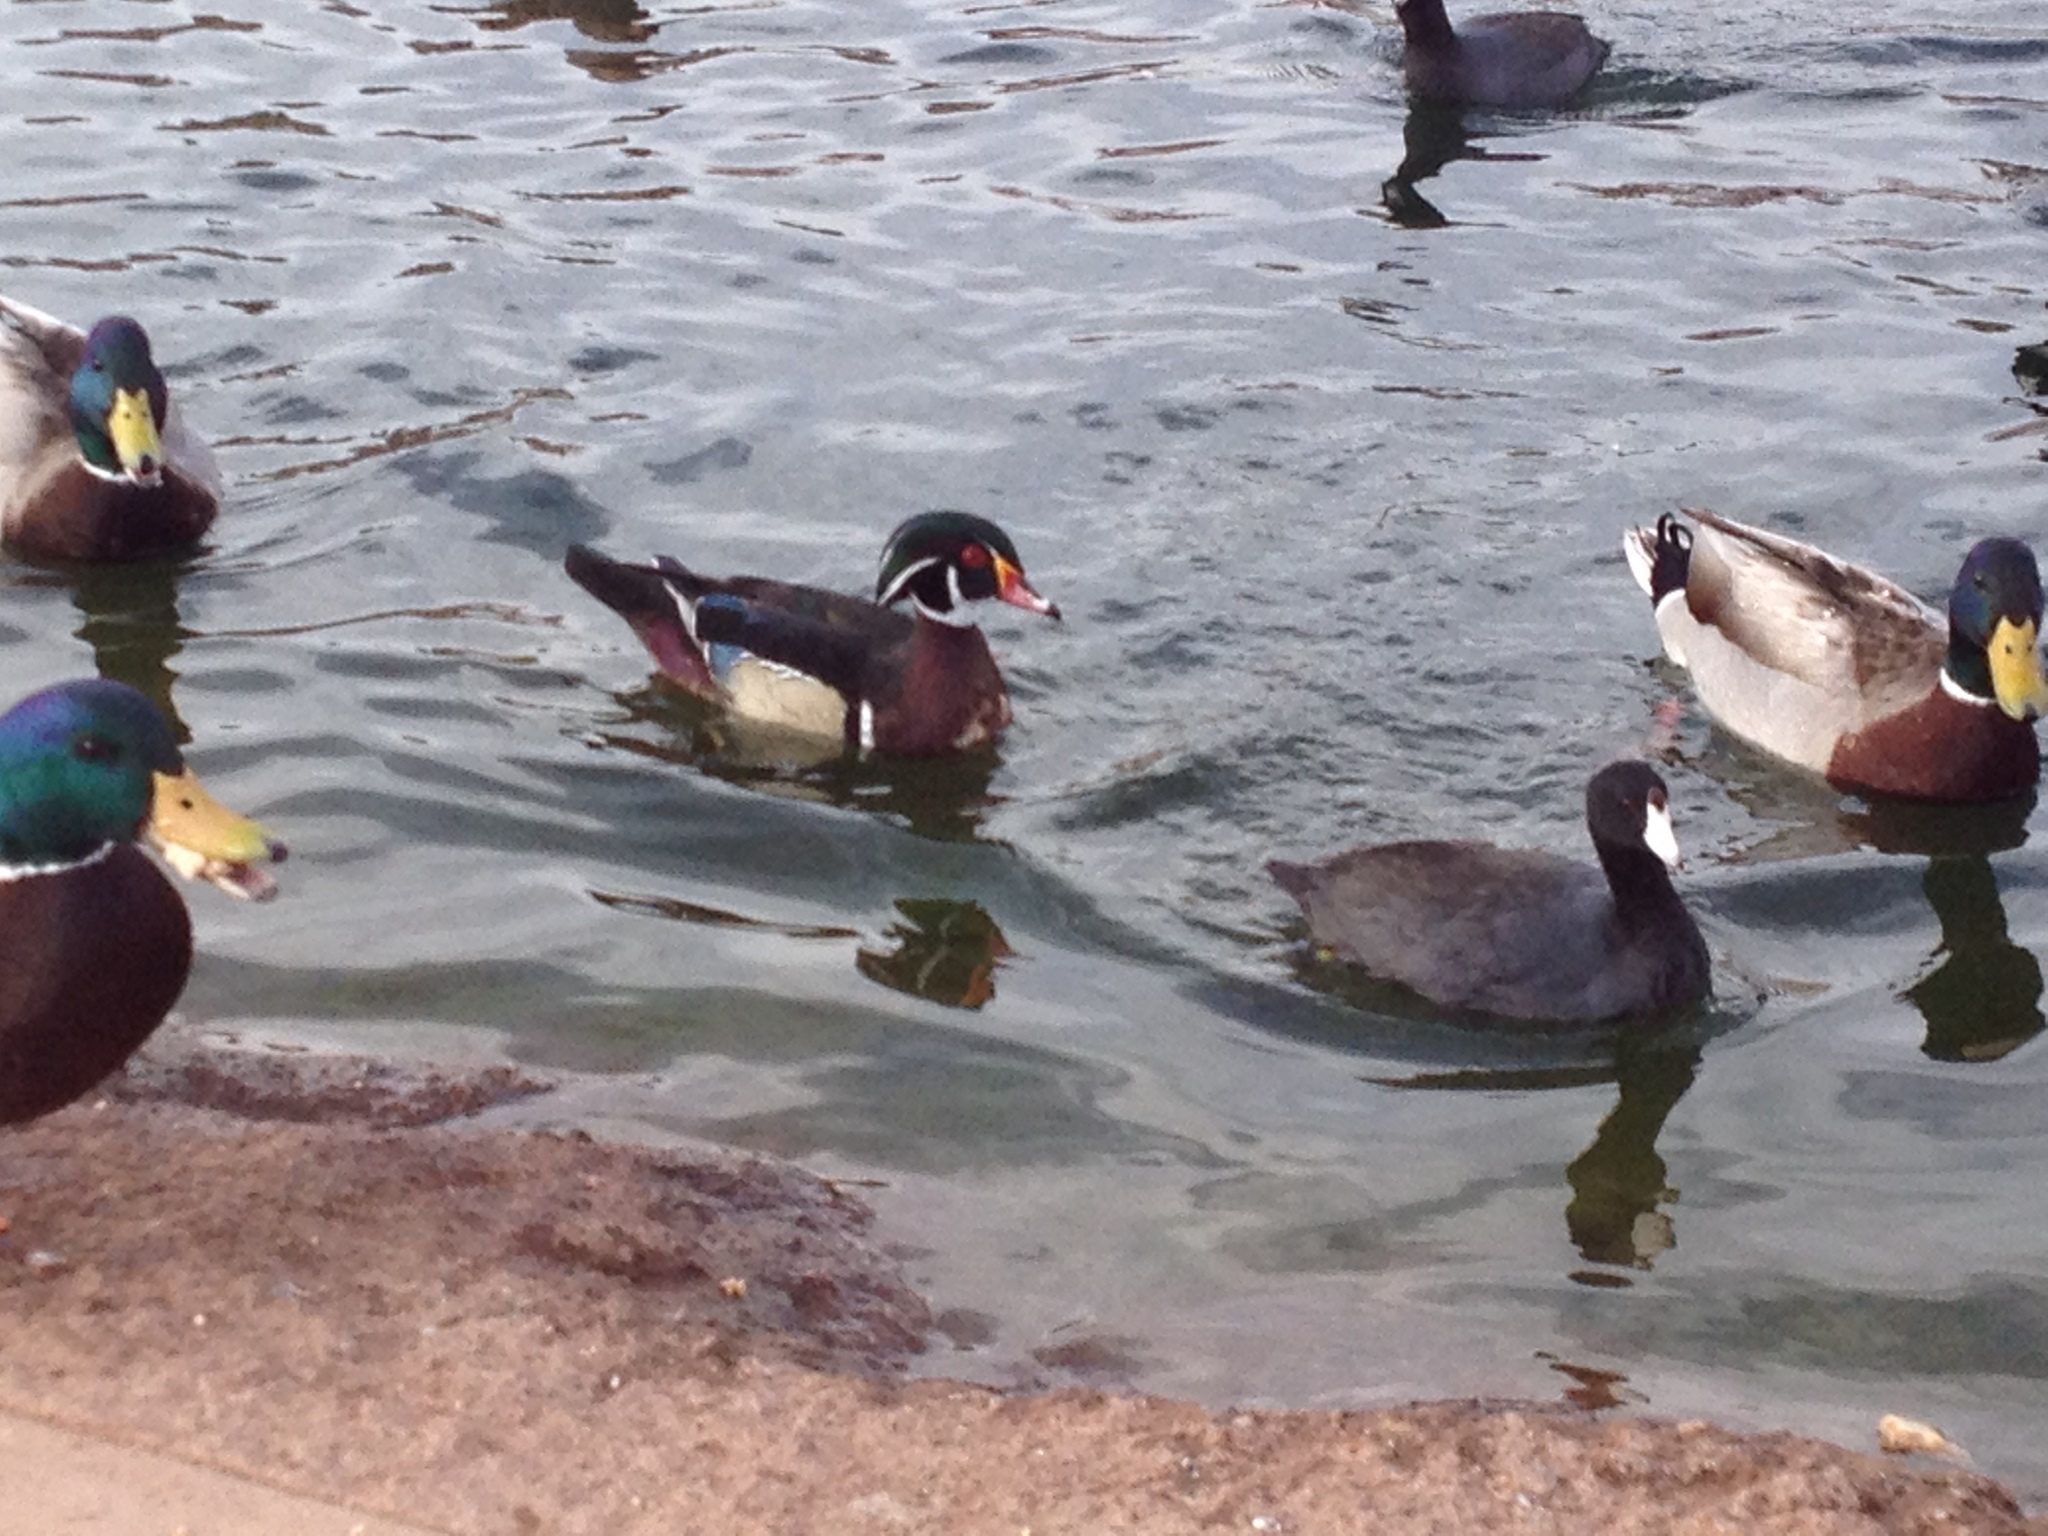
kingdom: Animalia
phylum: Chordata
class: Aves
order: Anseriformes
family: Anatidae
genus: Aix
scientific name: Aix sponsa
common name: Wood duck
